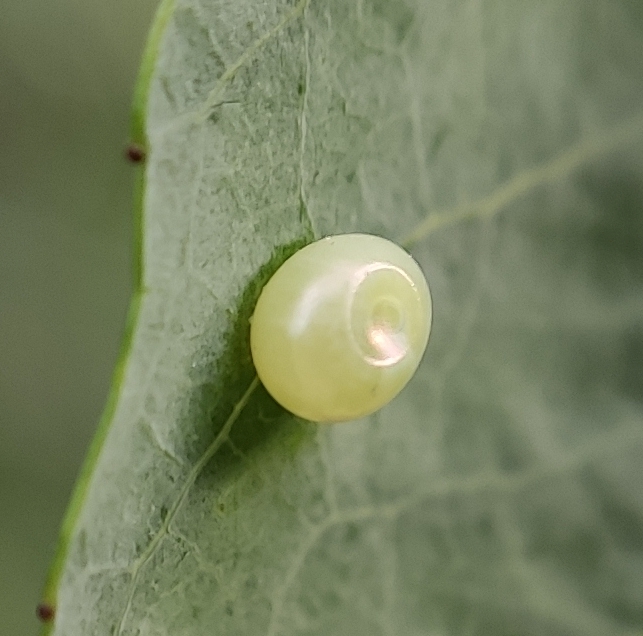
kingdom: Animalia
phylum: Arthropoda
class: Insecta
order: Lepidoptera
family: Sphingidae
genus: Laothoe
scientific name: Laothoe populi
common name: Poplar hawk-moth
